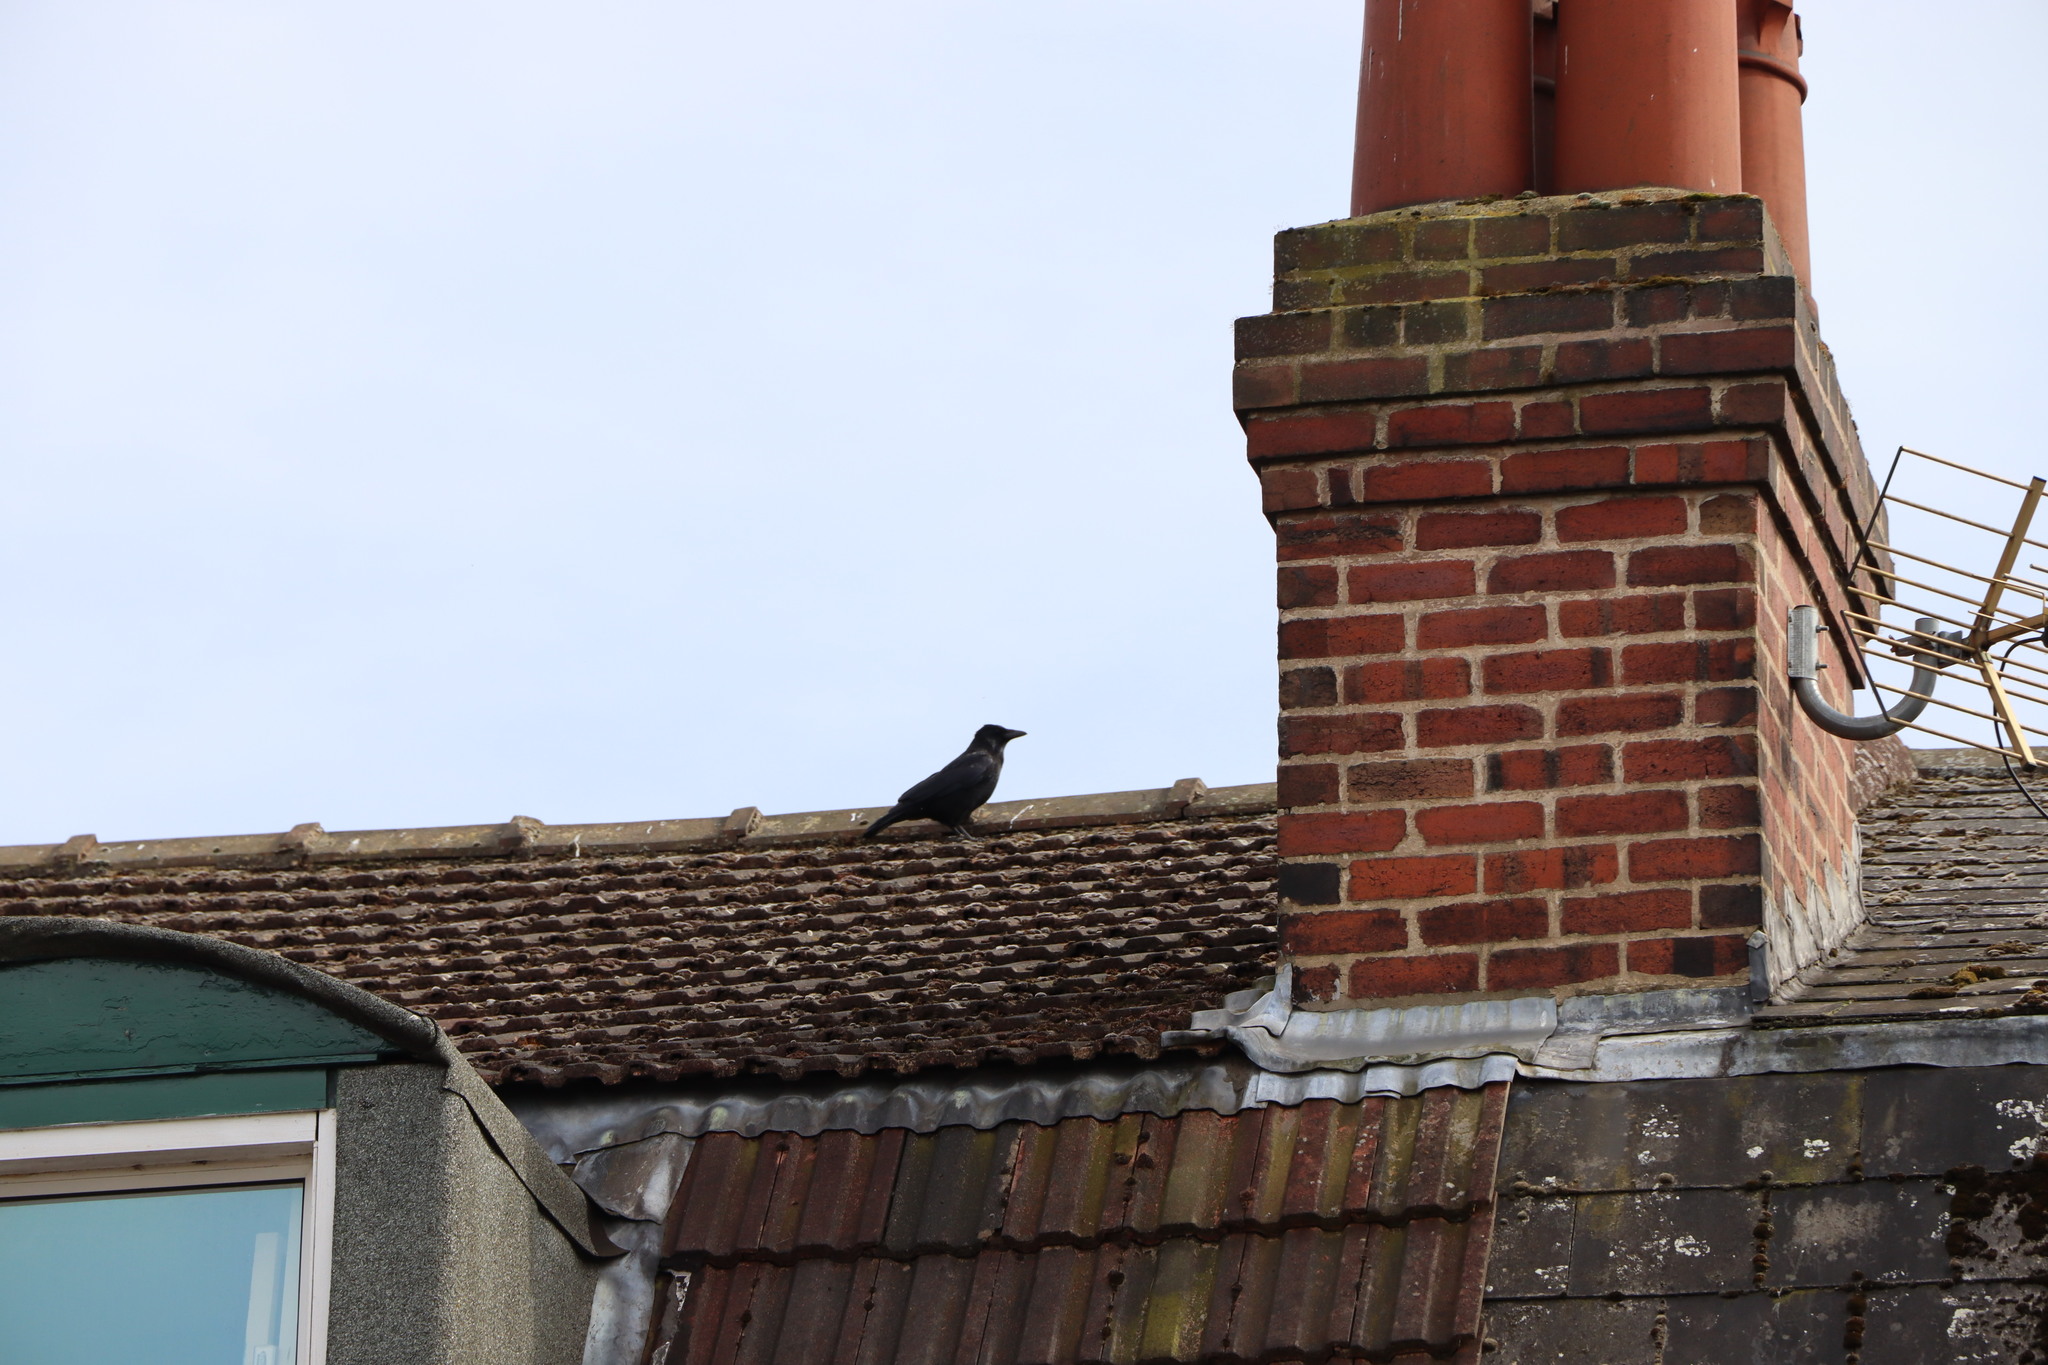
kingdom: Animalia
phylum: Chordata
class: Aves
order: Passeriformes
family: Corvidae
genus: Corvus
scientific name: Corvus corone
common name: Carrion crow
